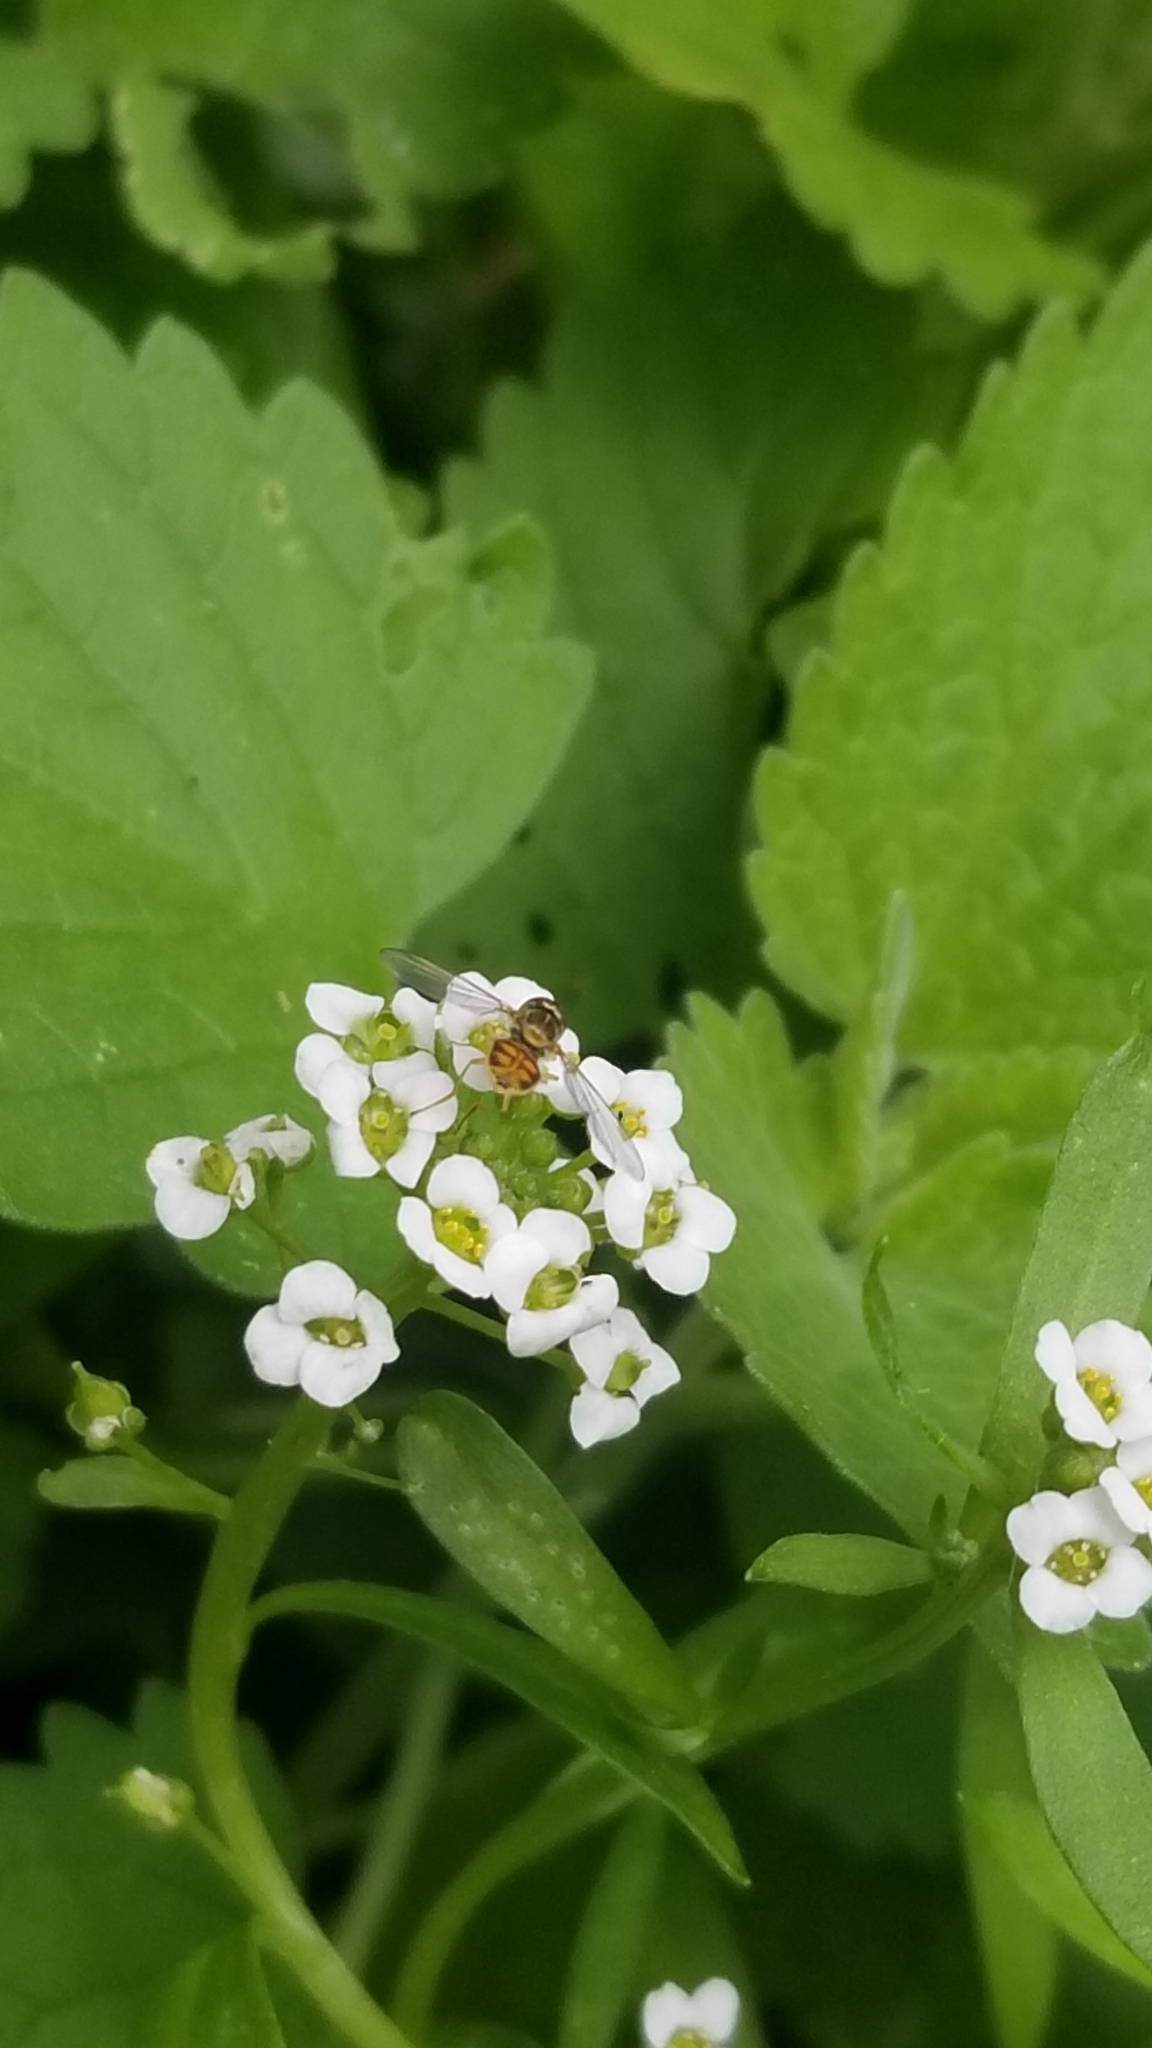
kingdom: Animalia
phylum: Arthropoda
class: Insecta
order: Diptera
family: Syrphidae
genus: Toxomerus
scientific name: Toxomerus marginatus
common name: Syrphid fly
